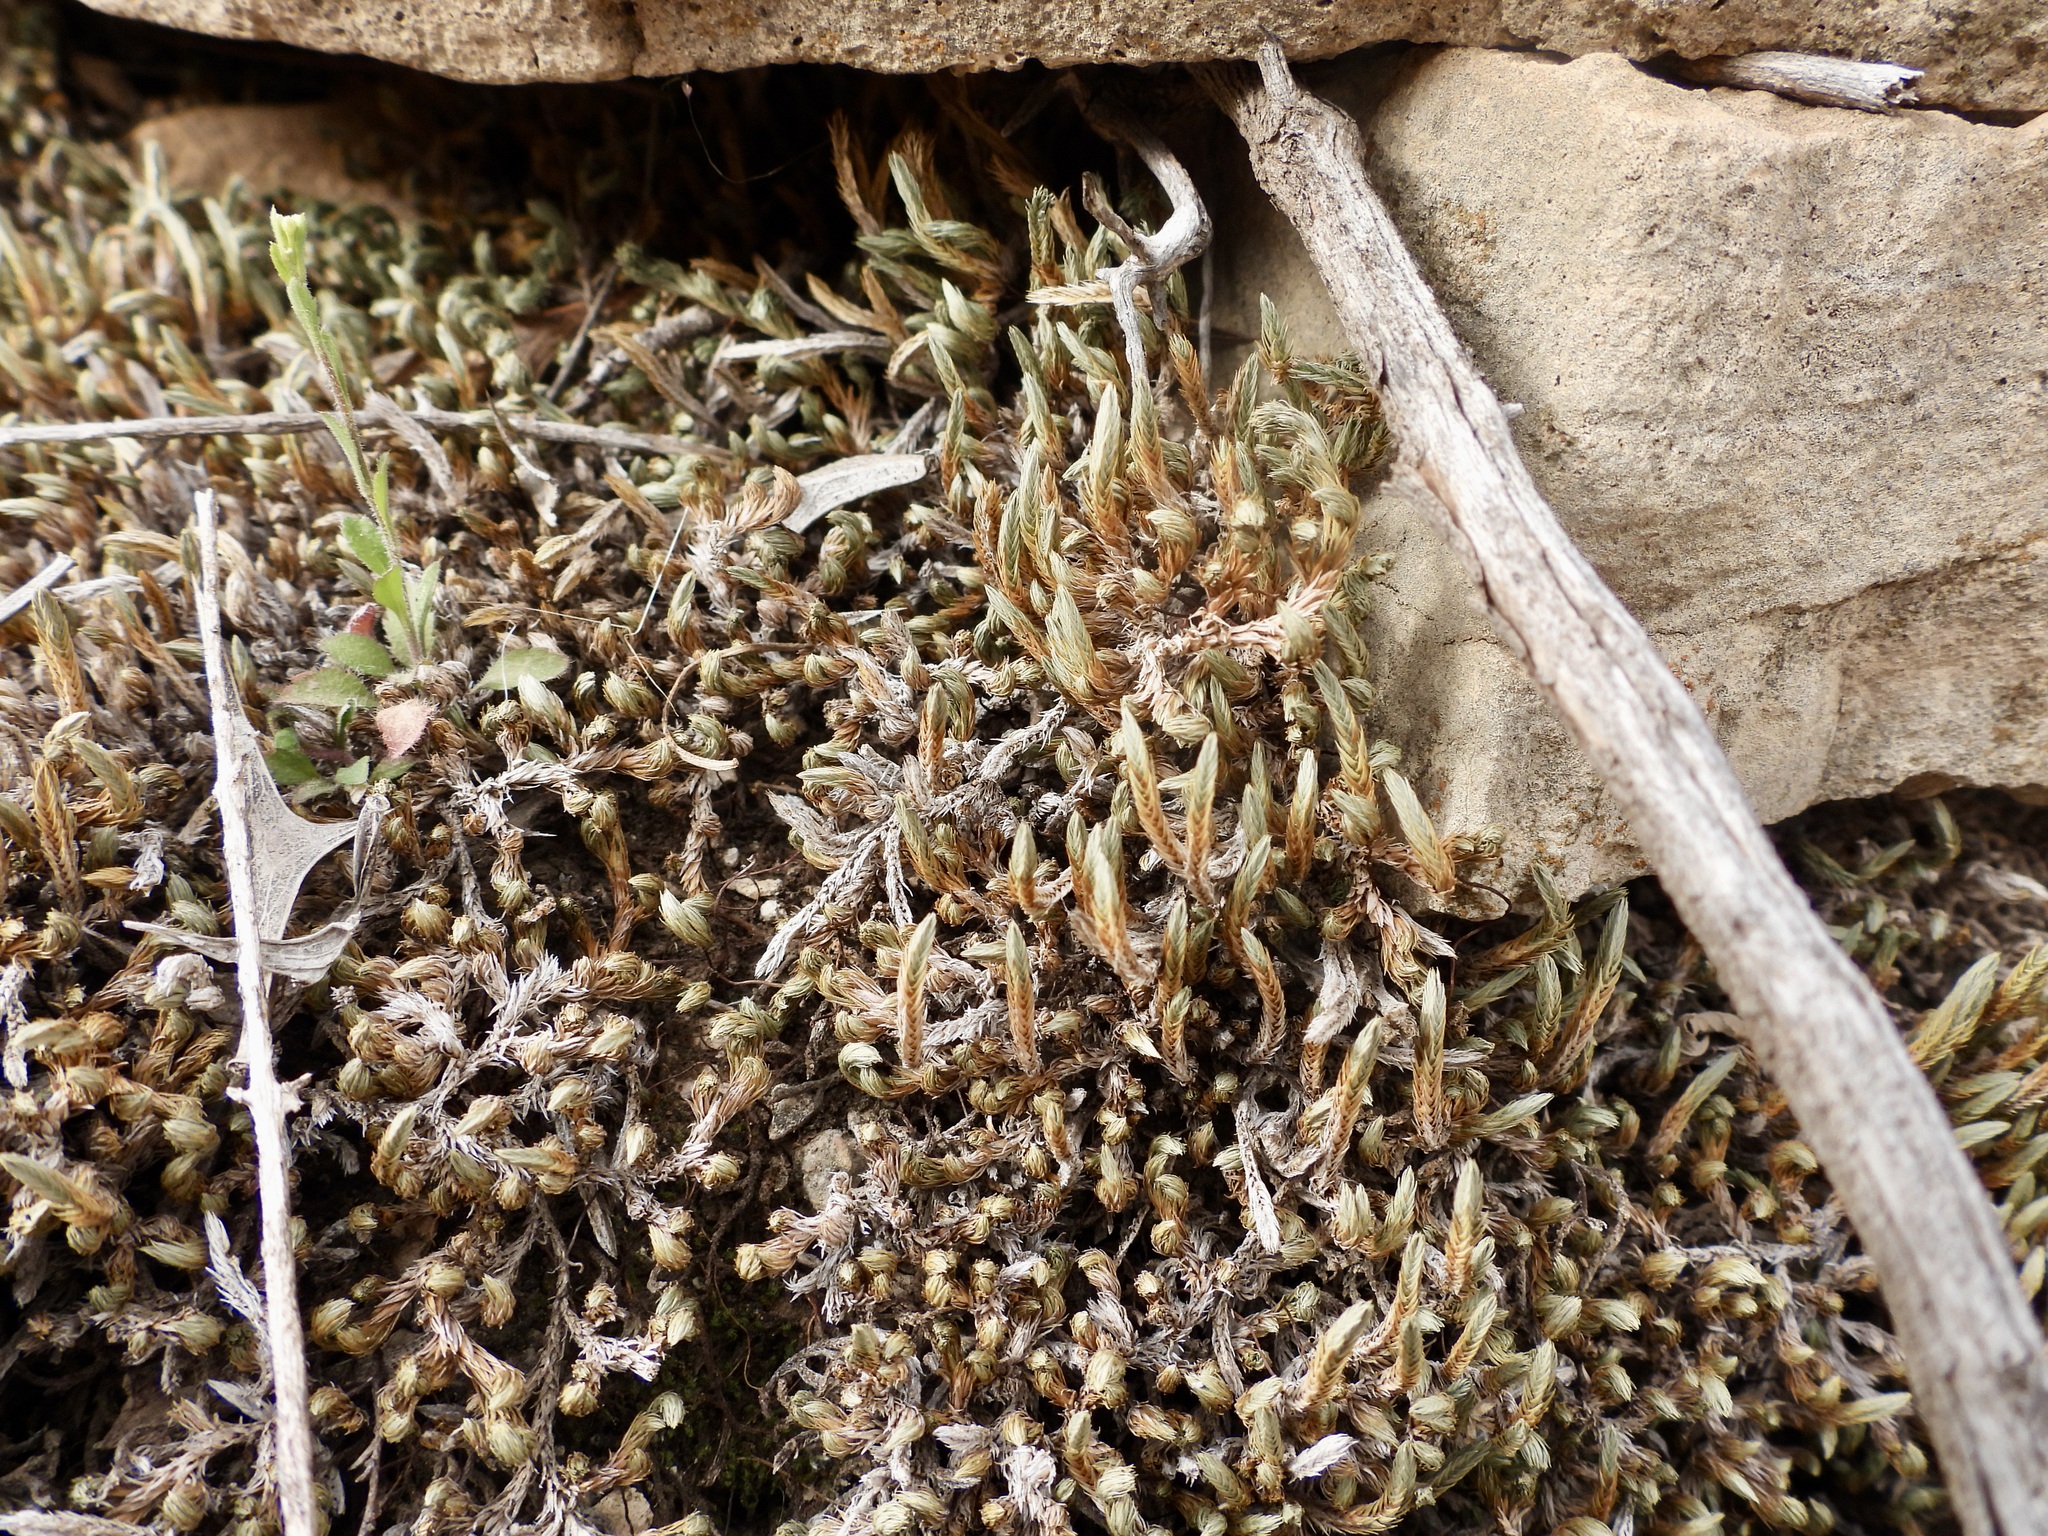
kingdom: Plantae
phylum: Tracheophyta
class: Lycopodiopsida
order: Selaginellales
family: Selaginellaceae
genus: Selaginella
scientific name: Selaginella densa
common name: Mountain spike-moss
